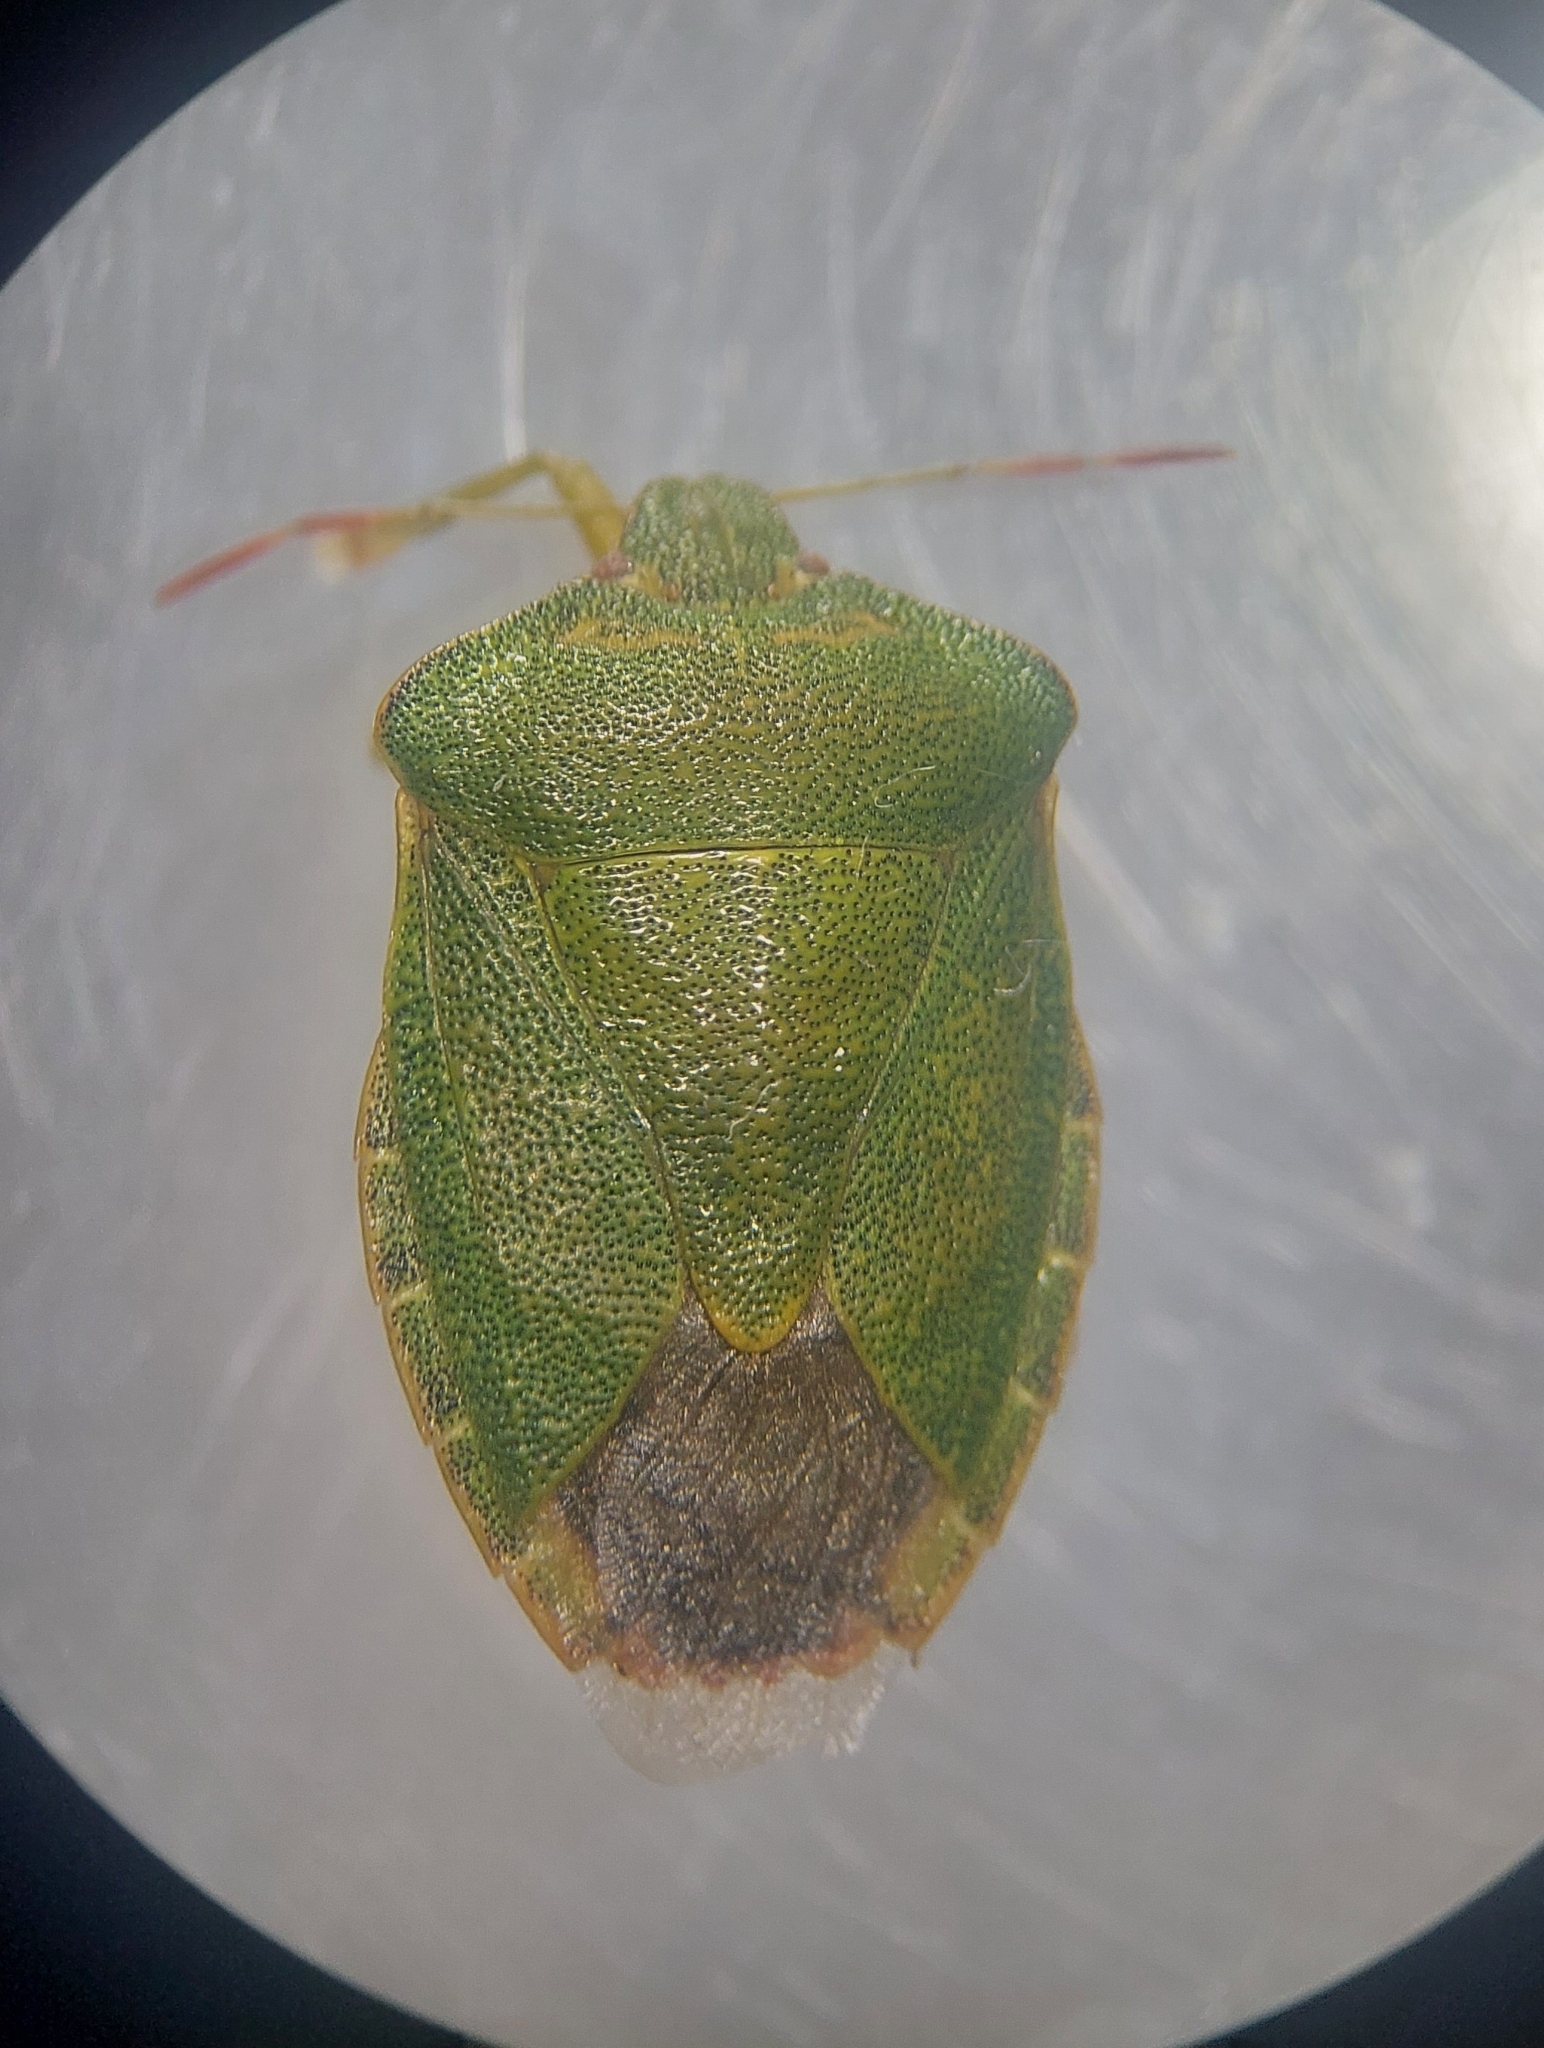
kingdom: Animalia
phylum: Arthropoda
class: Insecta
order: Hemiptera
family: Pentatomidae
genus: Palomena
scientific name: Palomena prasina
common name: Green shieldbug
